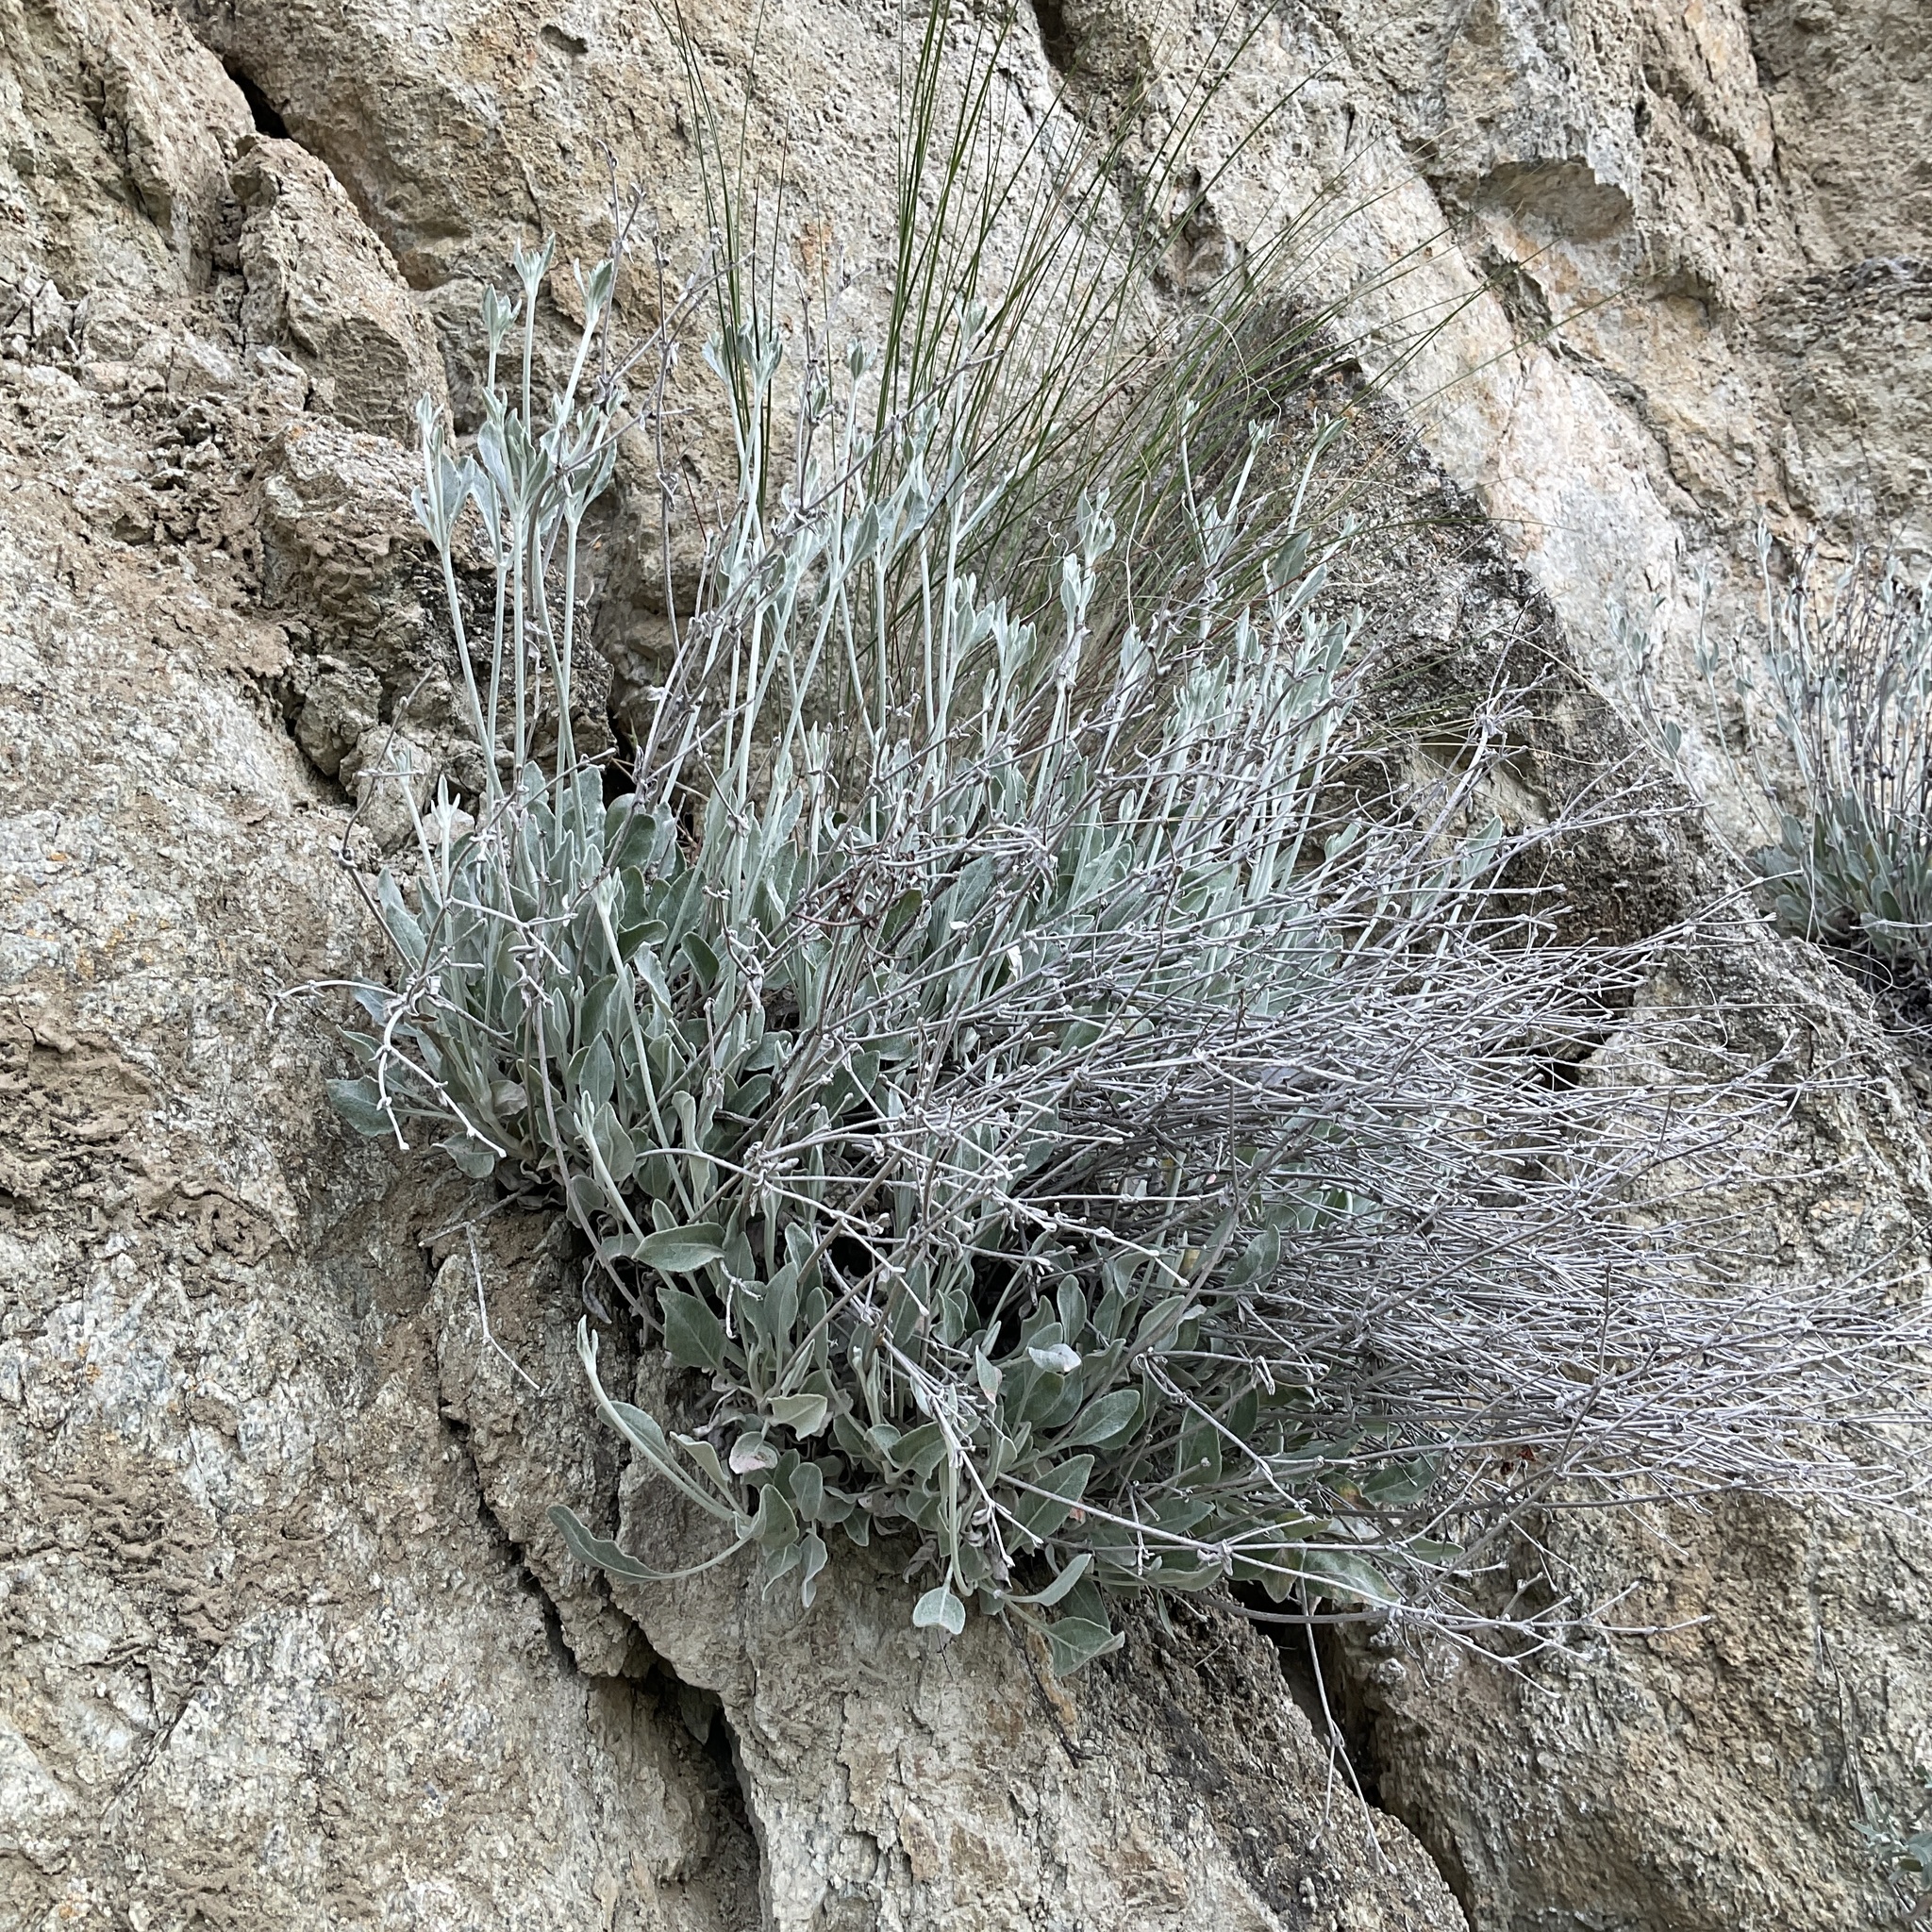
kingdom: Plantae
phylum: Tracheophyta
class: Magnoliopsida
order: Caryophyllales
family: Polygonaceae
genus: Eriogonum
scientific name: Eriogonum niveum
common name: Snow wild buckwheat
